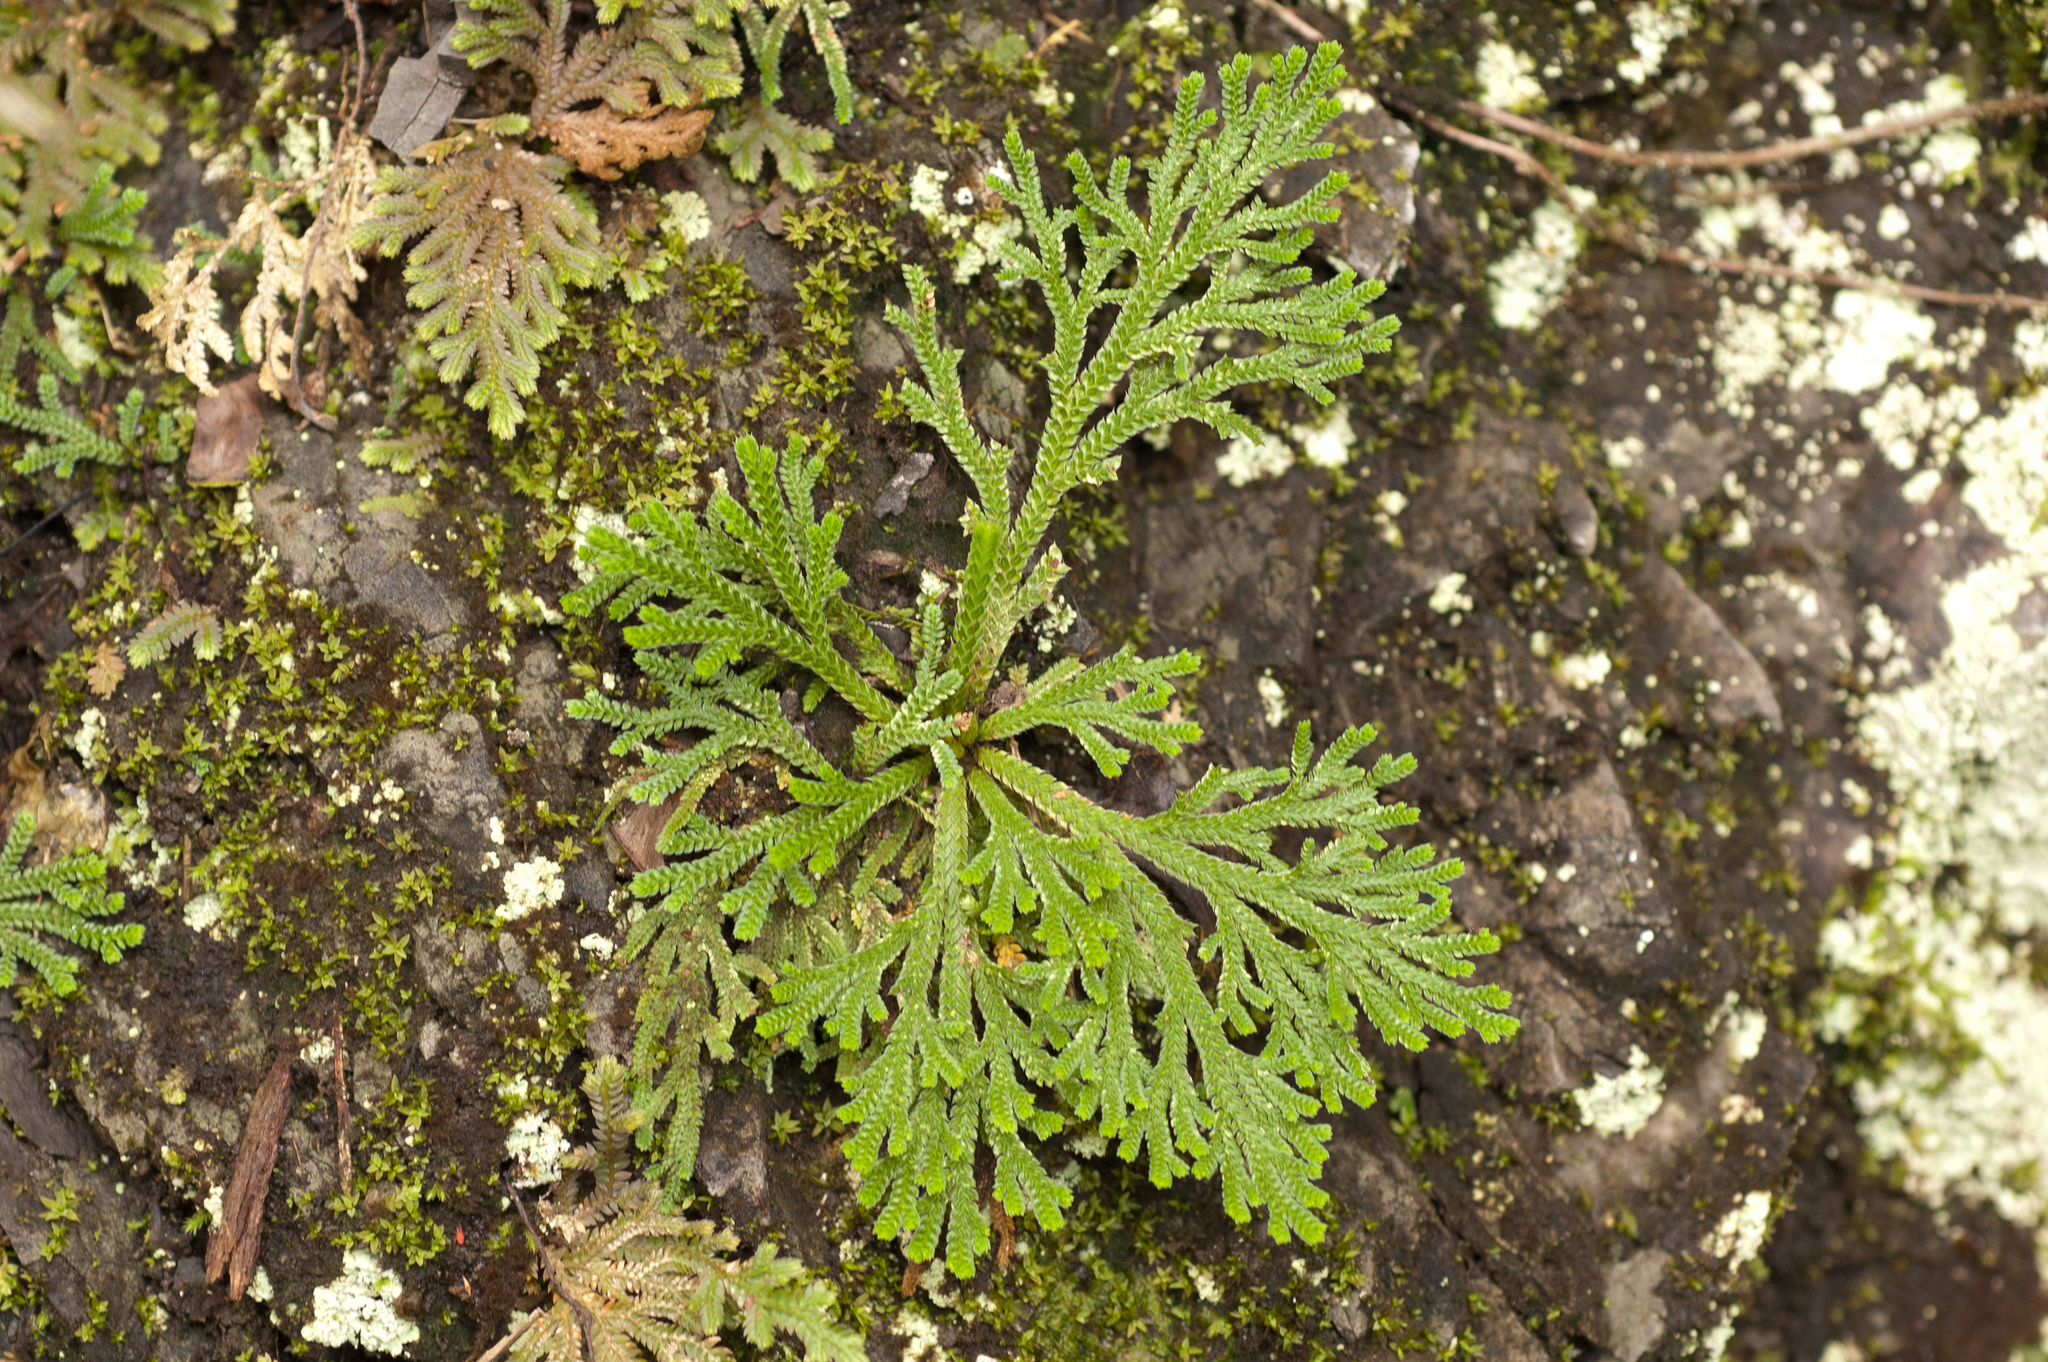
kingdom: Plantae
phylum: Tracheophyta
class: Lycopodiopsida
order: Selaginellales
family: Selaginellaceae
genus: Selaginella
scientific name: Selaginella tamariscina
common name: Little-club-moss
